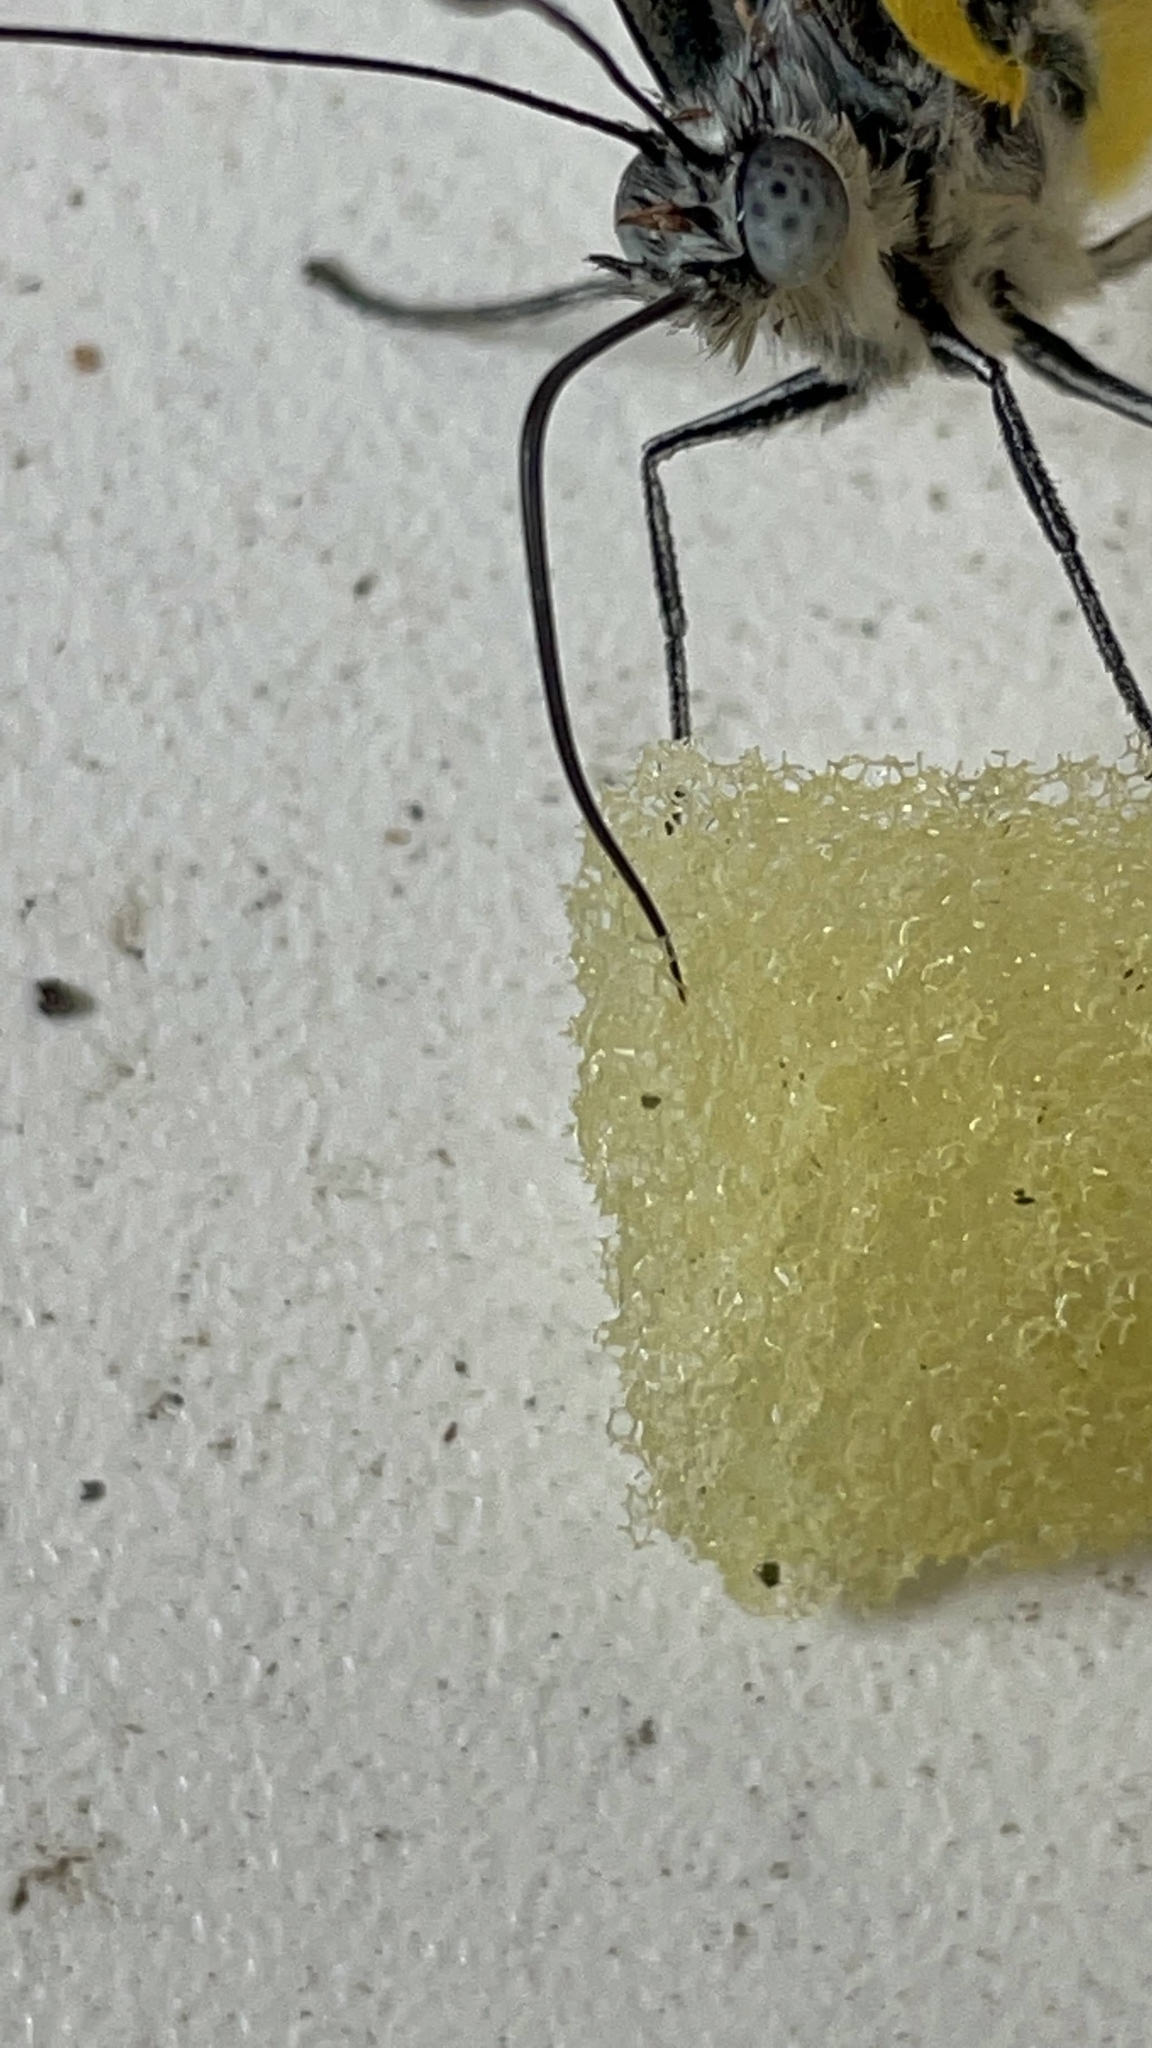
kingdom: Animalia
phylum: Arthropoda
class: Insecta
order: Lepidoptera
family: Pieridae
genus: Delias
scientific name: Delias eucharis
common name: Common jezebel
